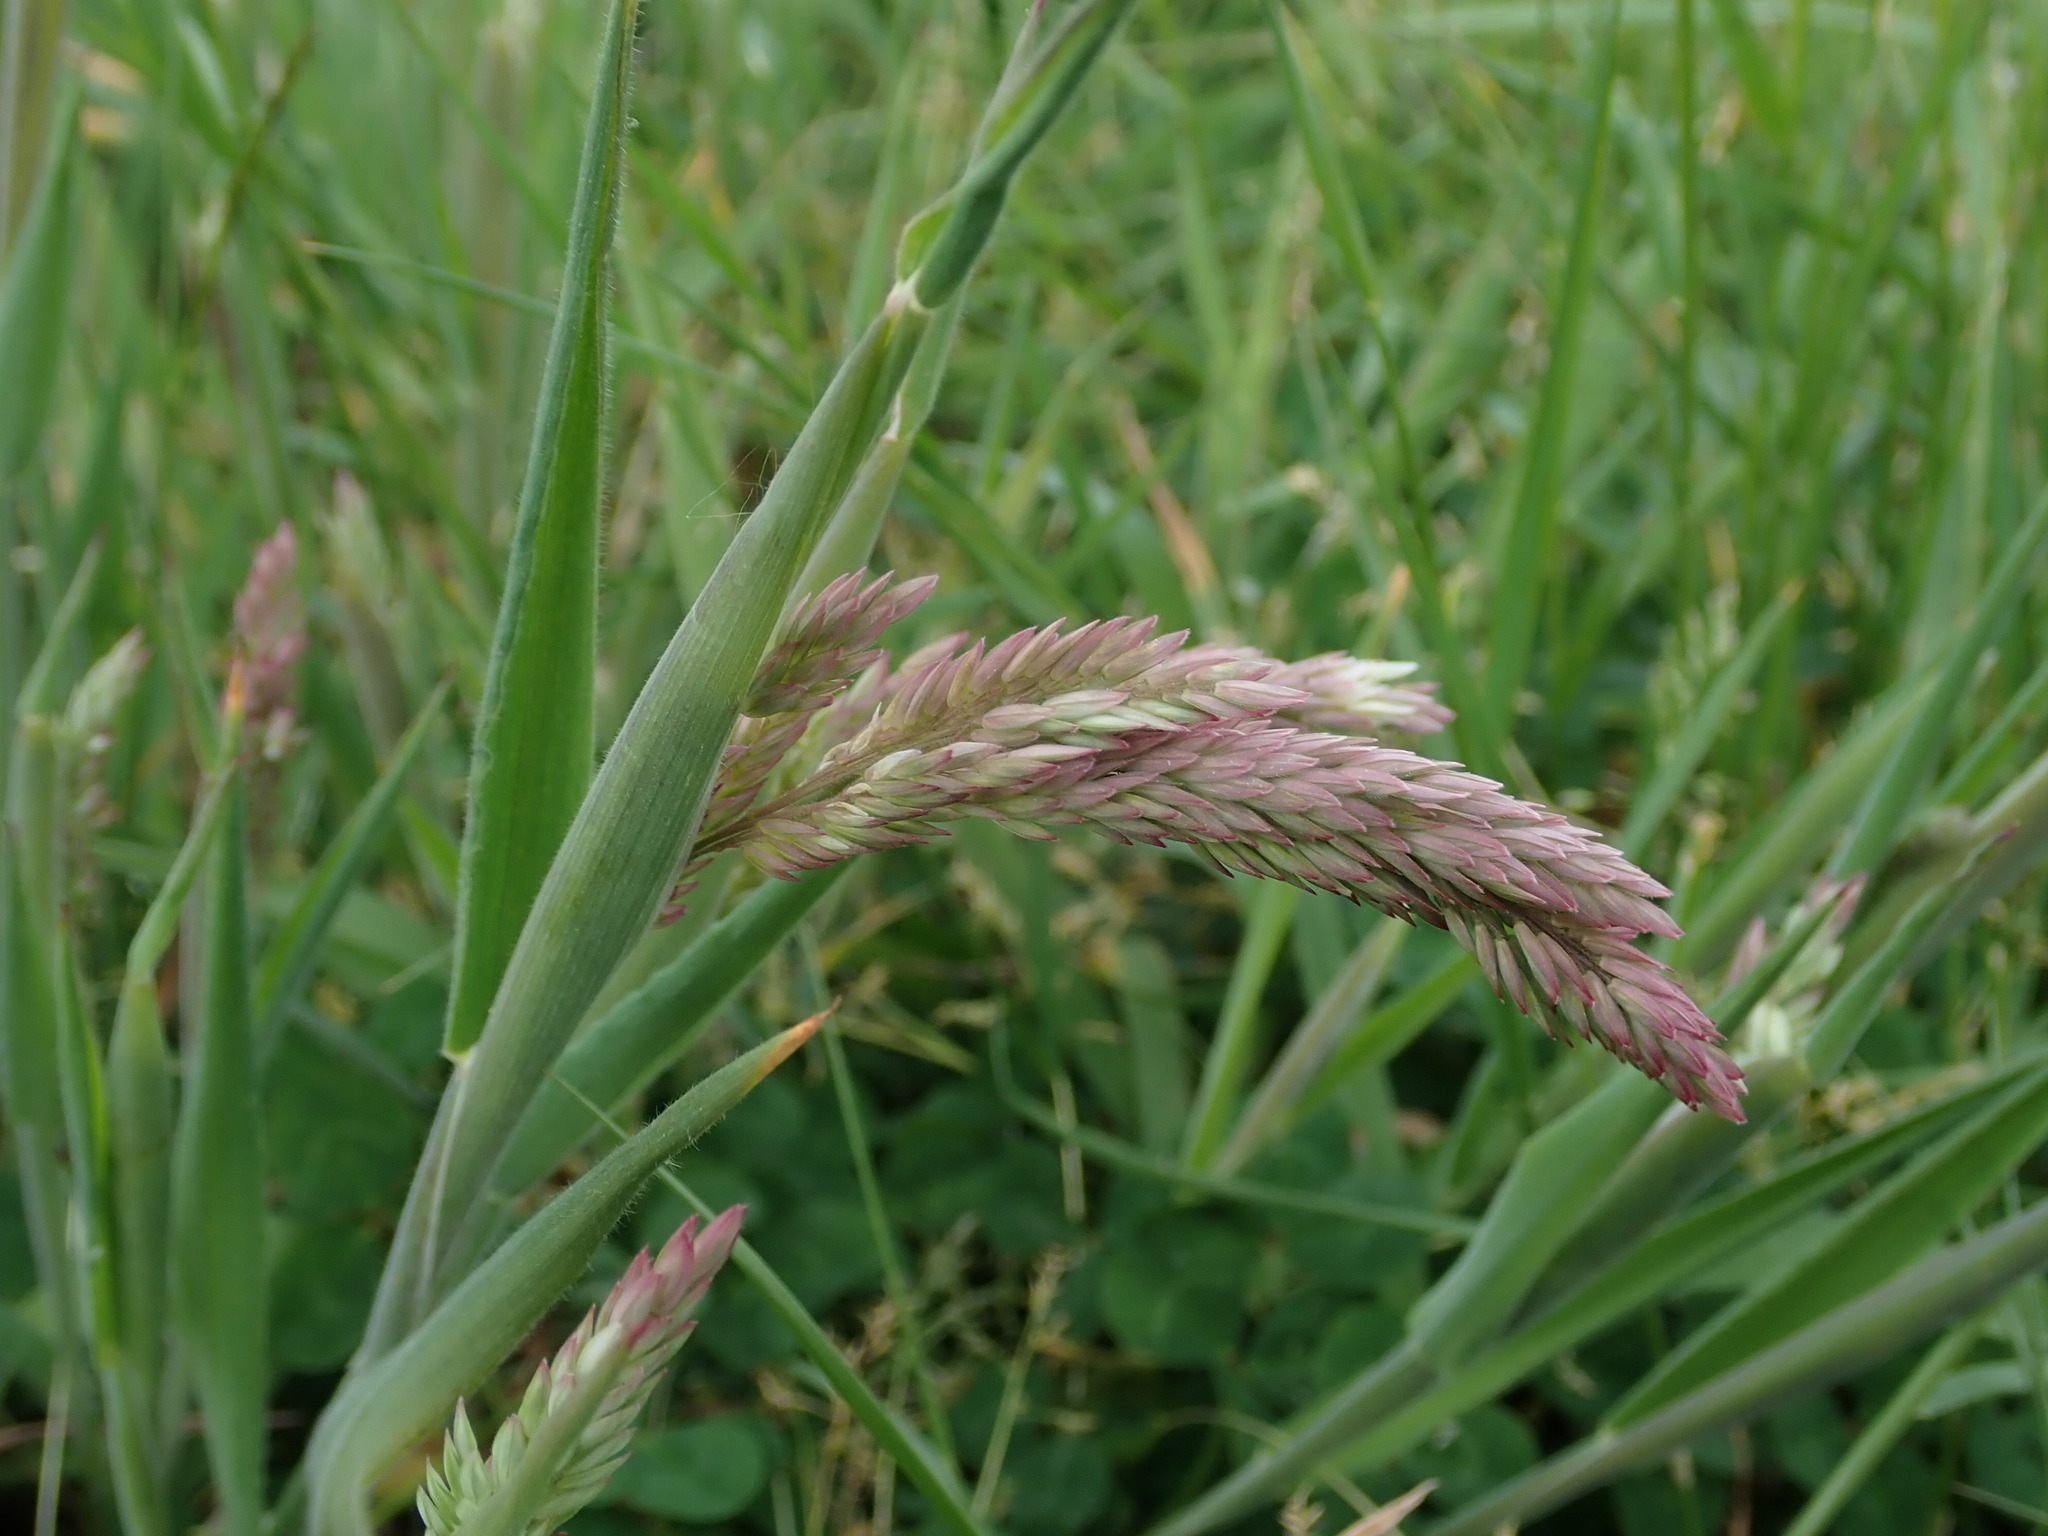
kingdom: Plantae
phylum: Tracheophyta
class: Liliopsida
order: Poales
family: Poaceae
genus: Holcus
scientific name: Holcus lanatus
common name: Yorkshire-fog
